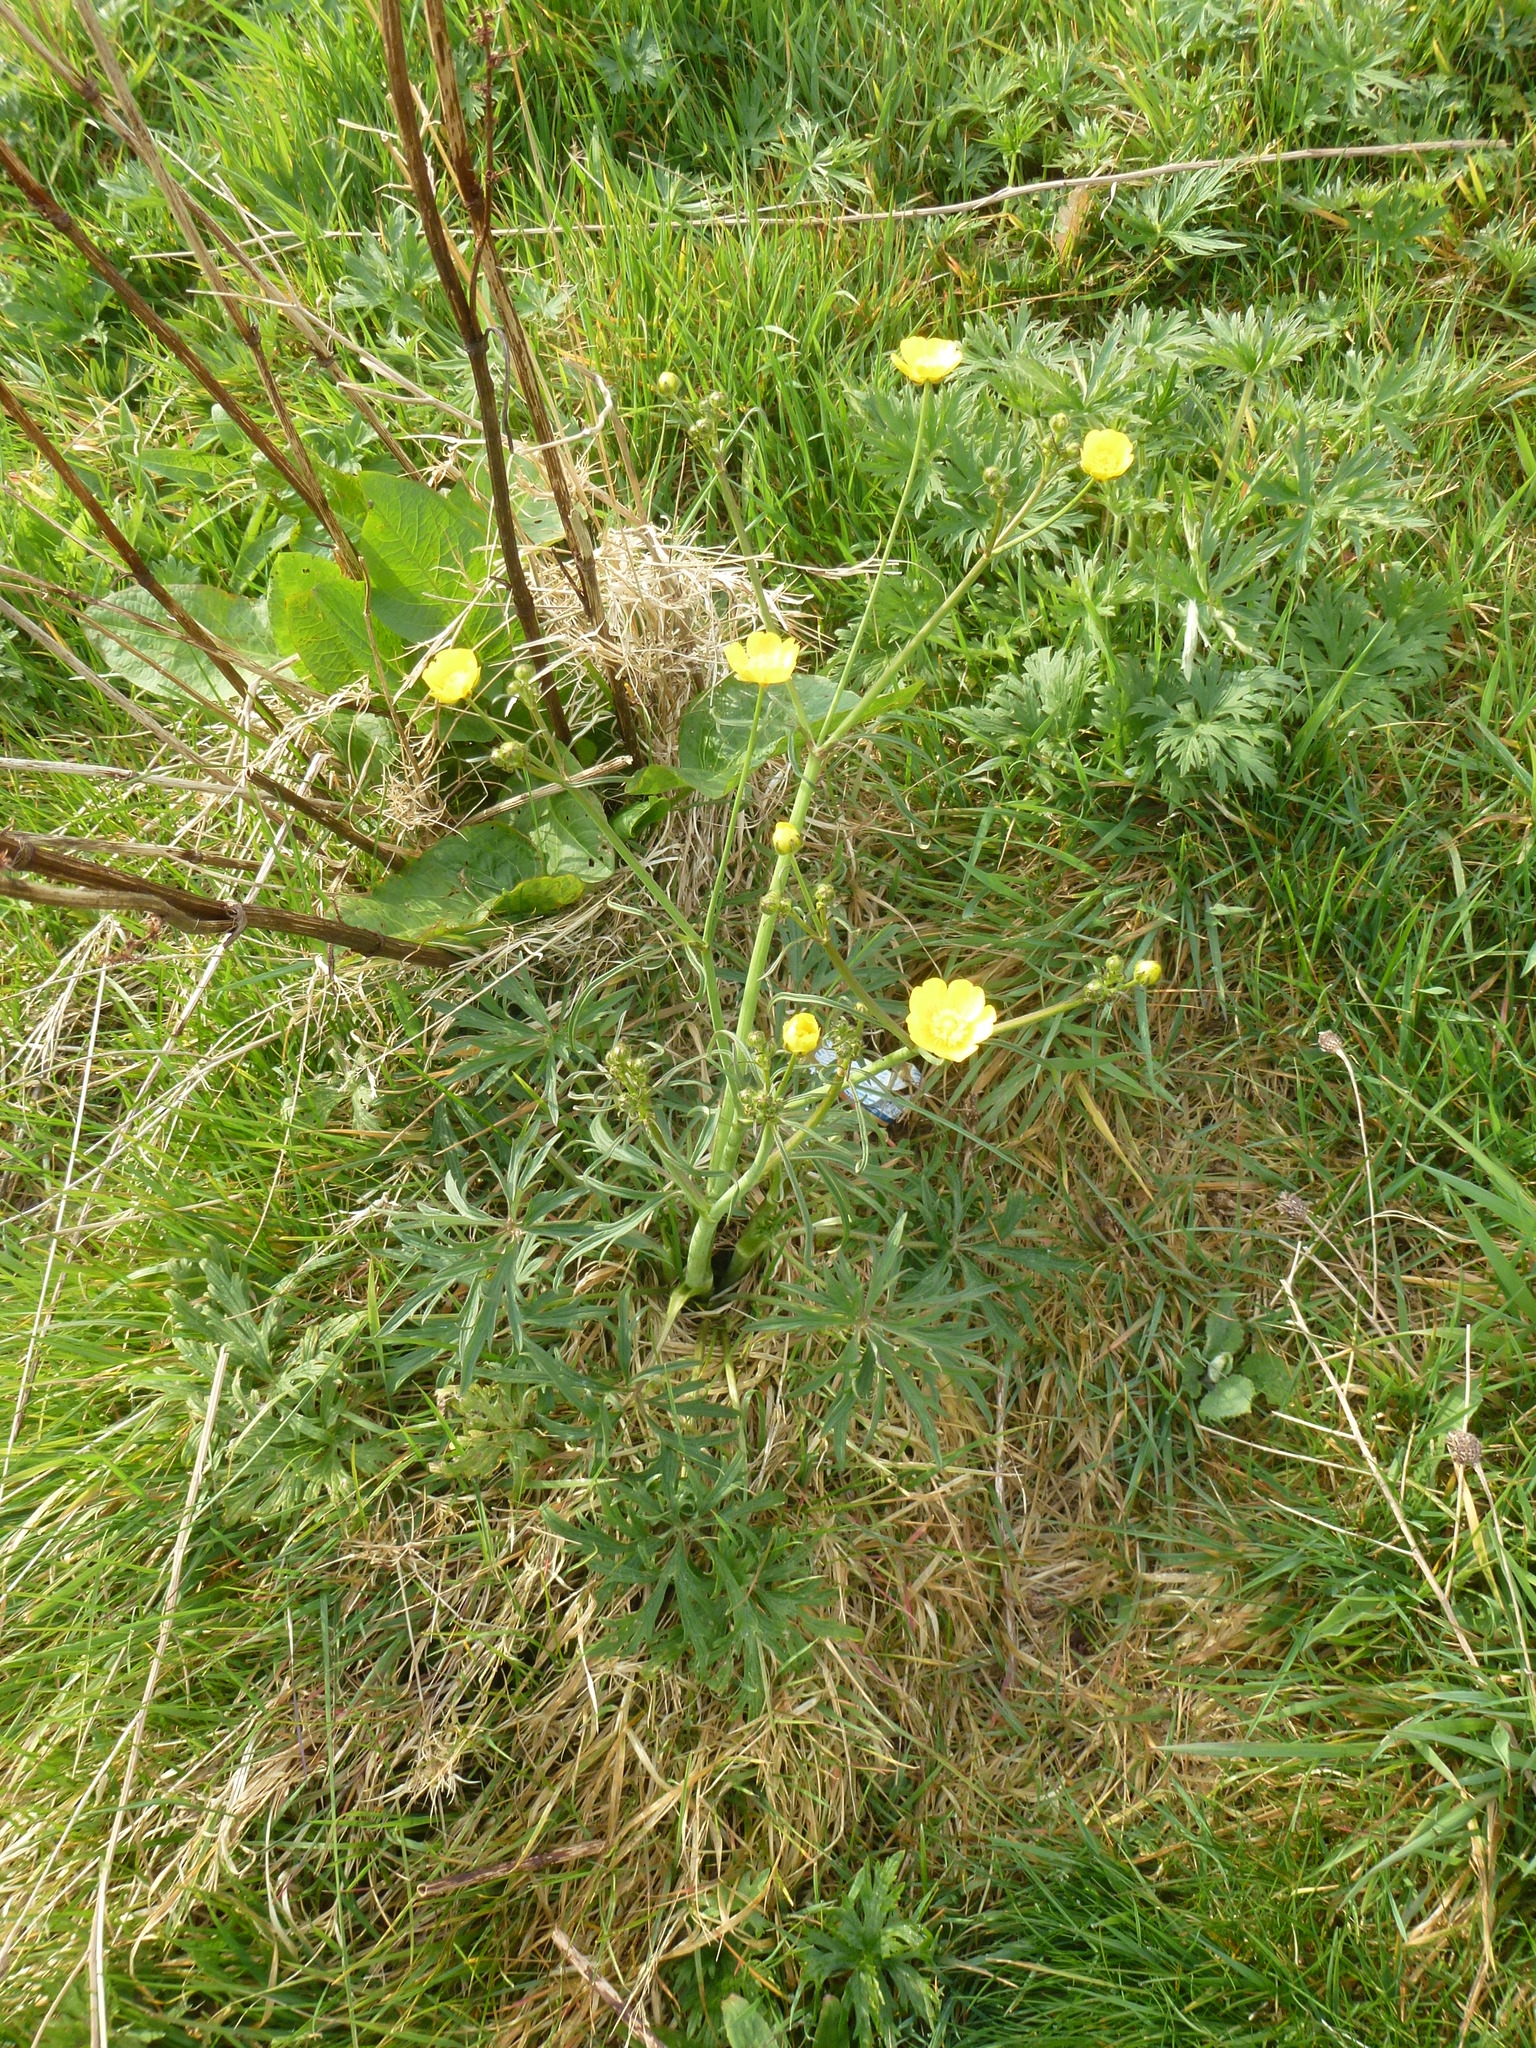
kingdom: Plantae
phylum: Tracheophyta
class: Magnoliopsida
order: Ranunculales
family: Ranunculaceae
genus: Ranunculus
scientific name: Ranunculus acris
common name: Meadow buttercup
